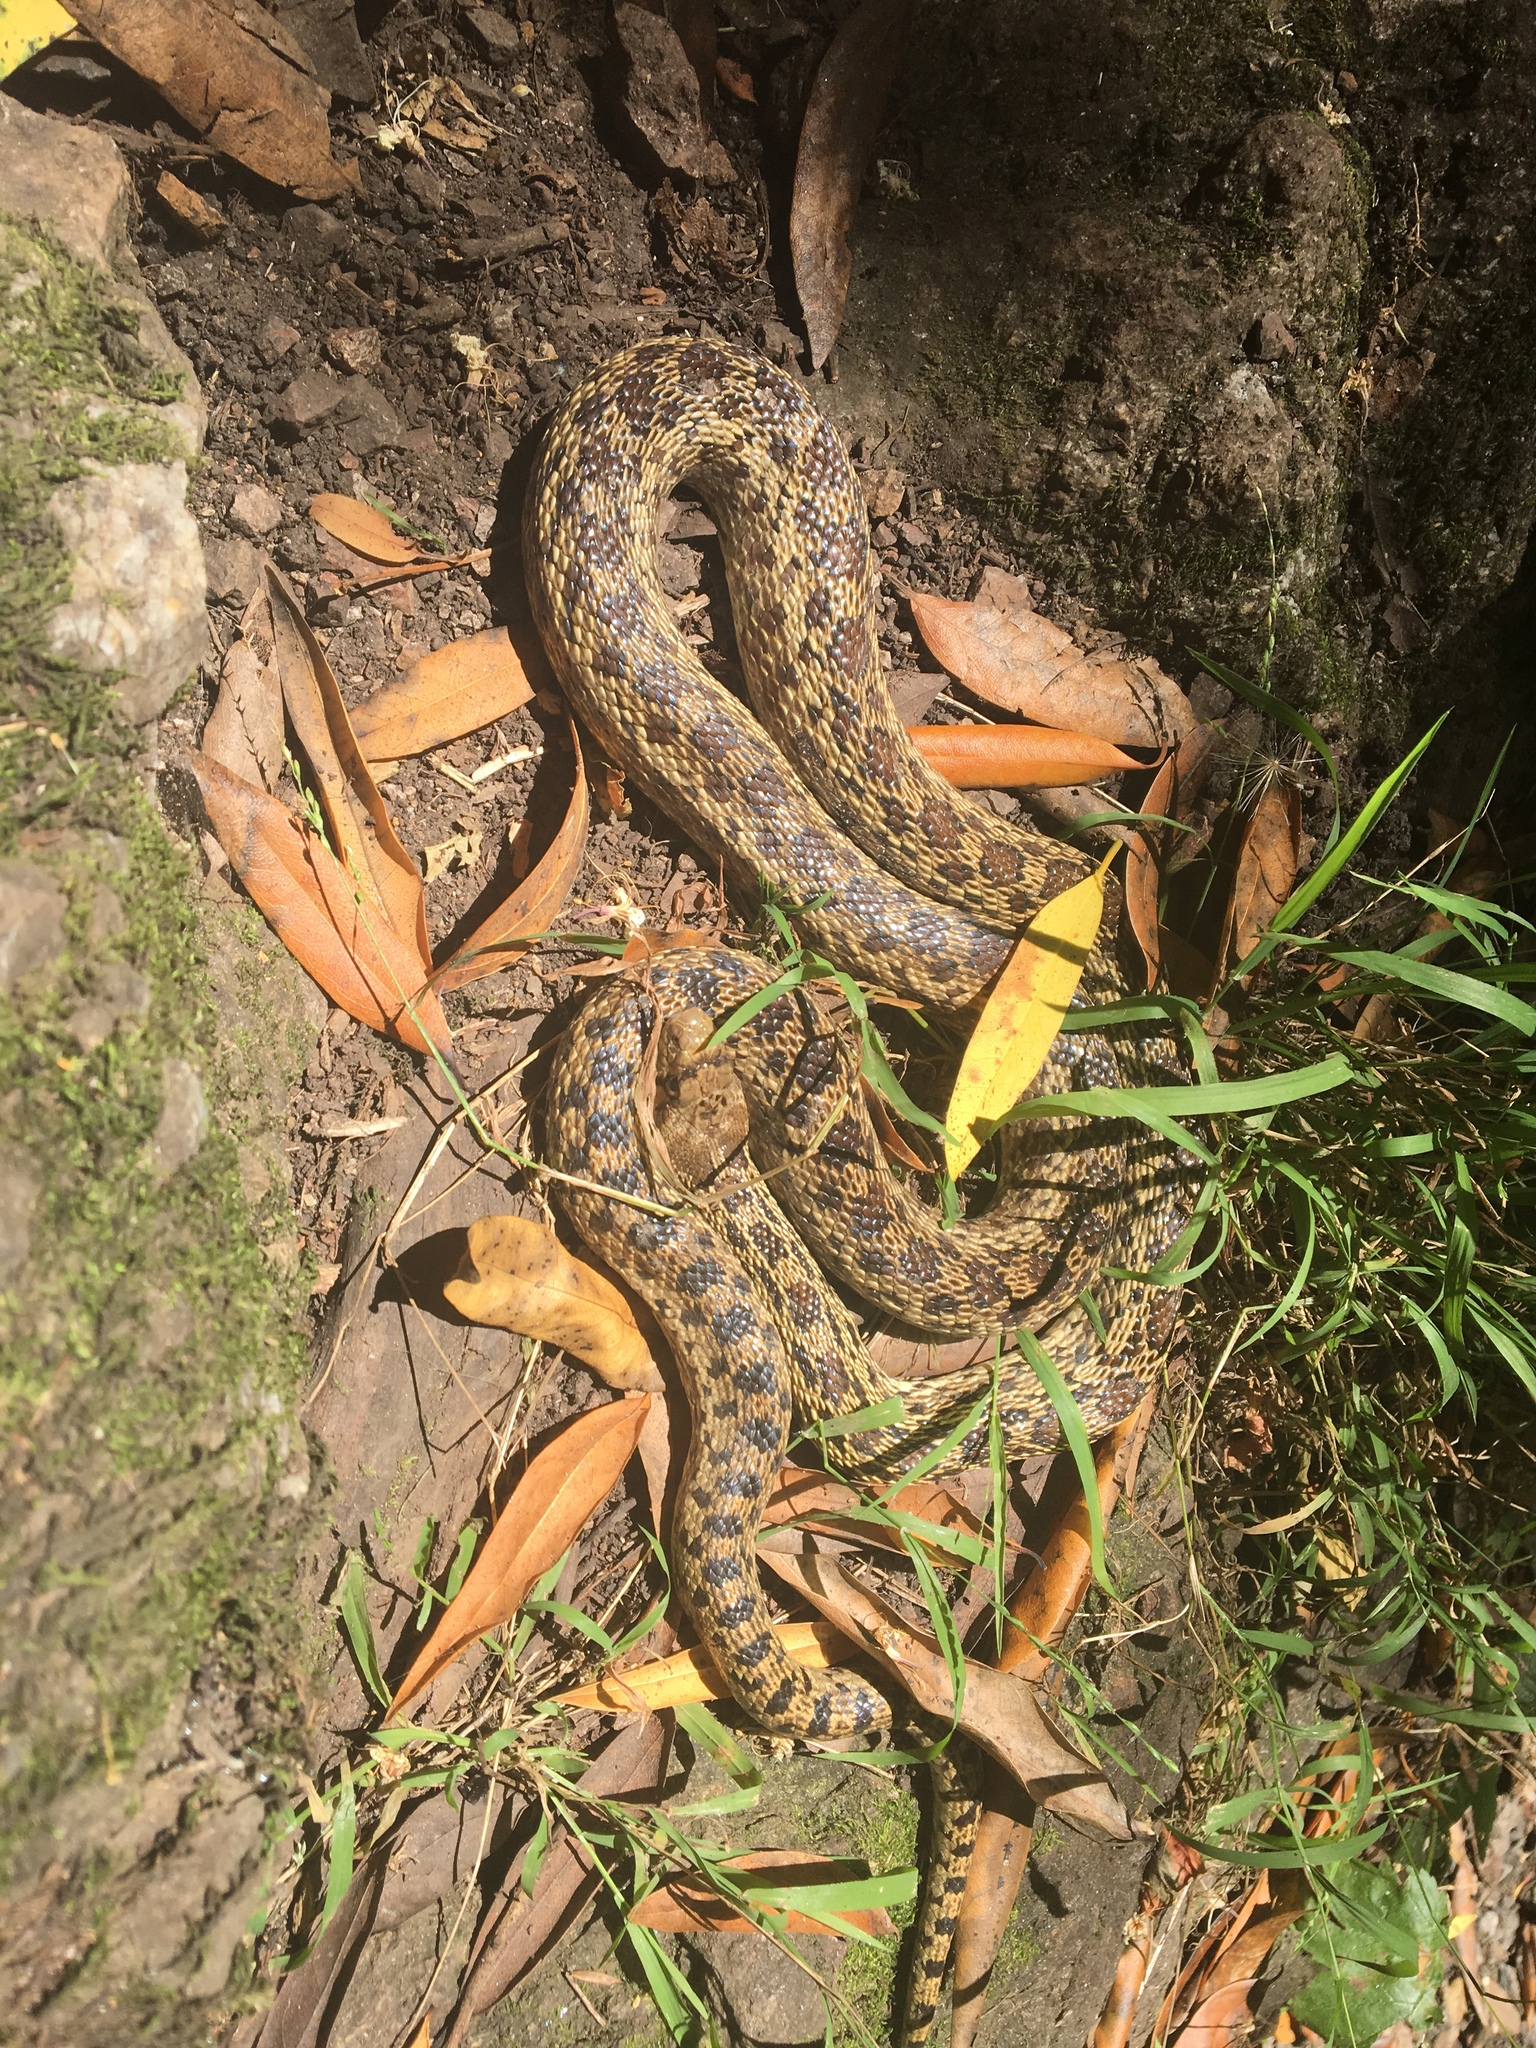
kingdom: Animalia
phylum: Chordata
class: Squamata
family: Colubridae
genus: Pituophis
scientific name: Pituophis catenifer
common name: Gopher snake
